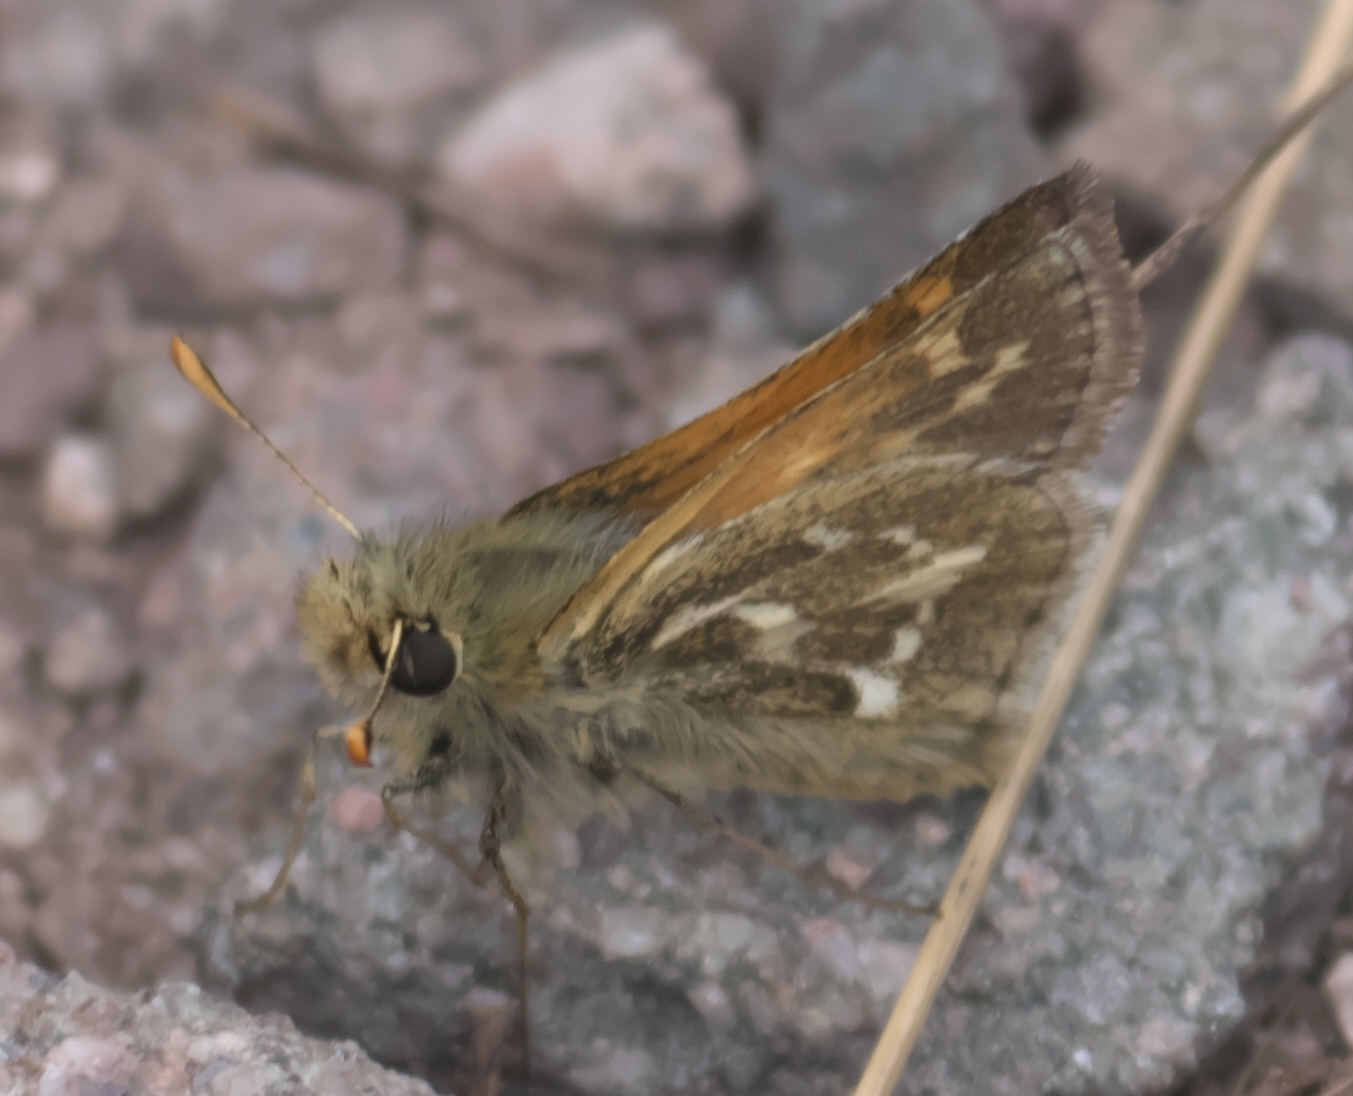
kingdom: Animalia
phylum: Arthropoda
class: Insecta
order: Lepidoptera
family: Hesperiidae
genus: Polites
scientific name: Polites sabuleti
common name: Sandhill skipper
